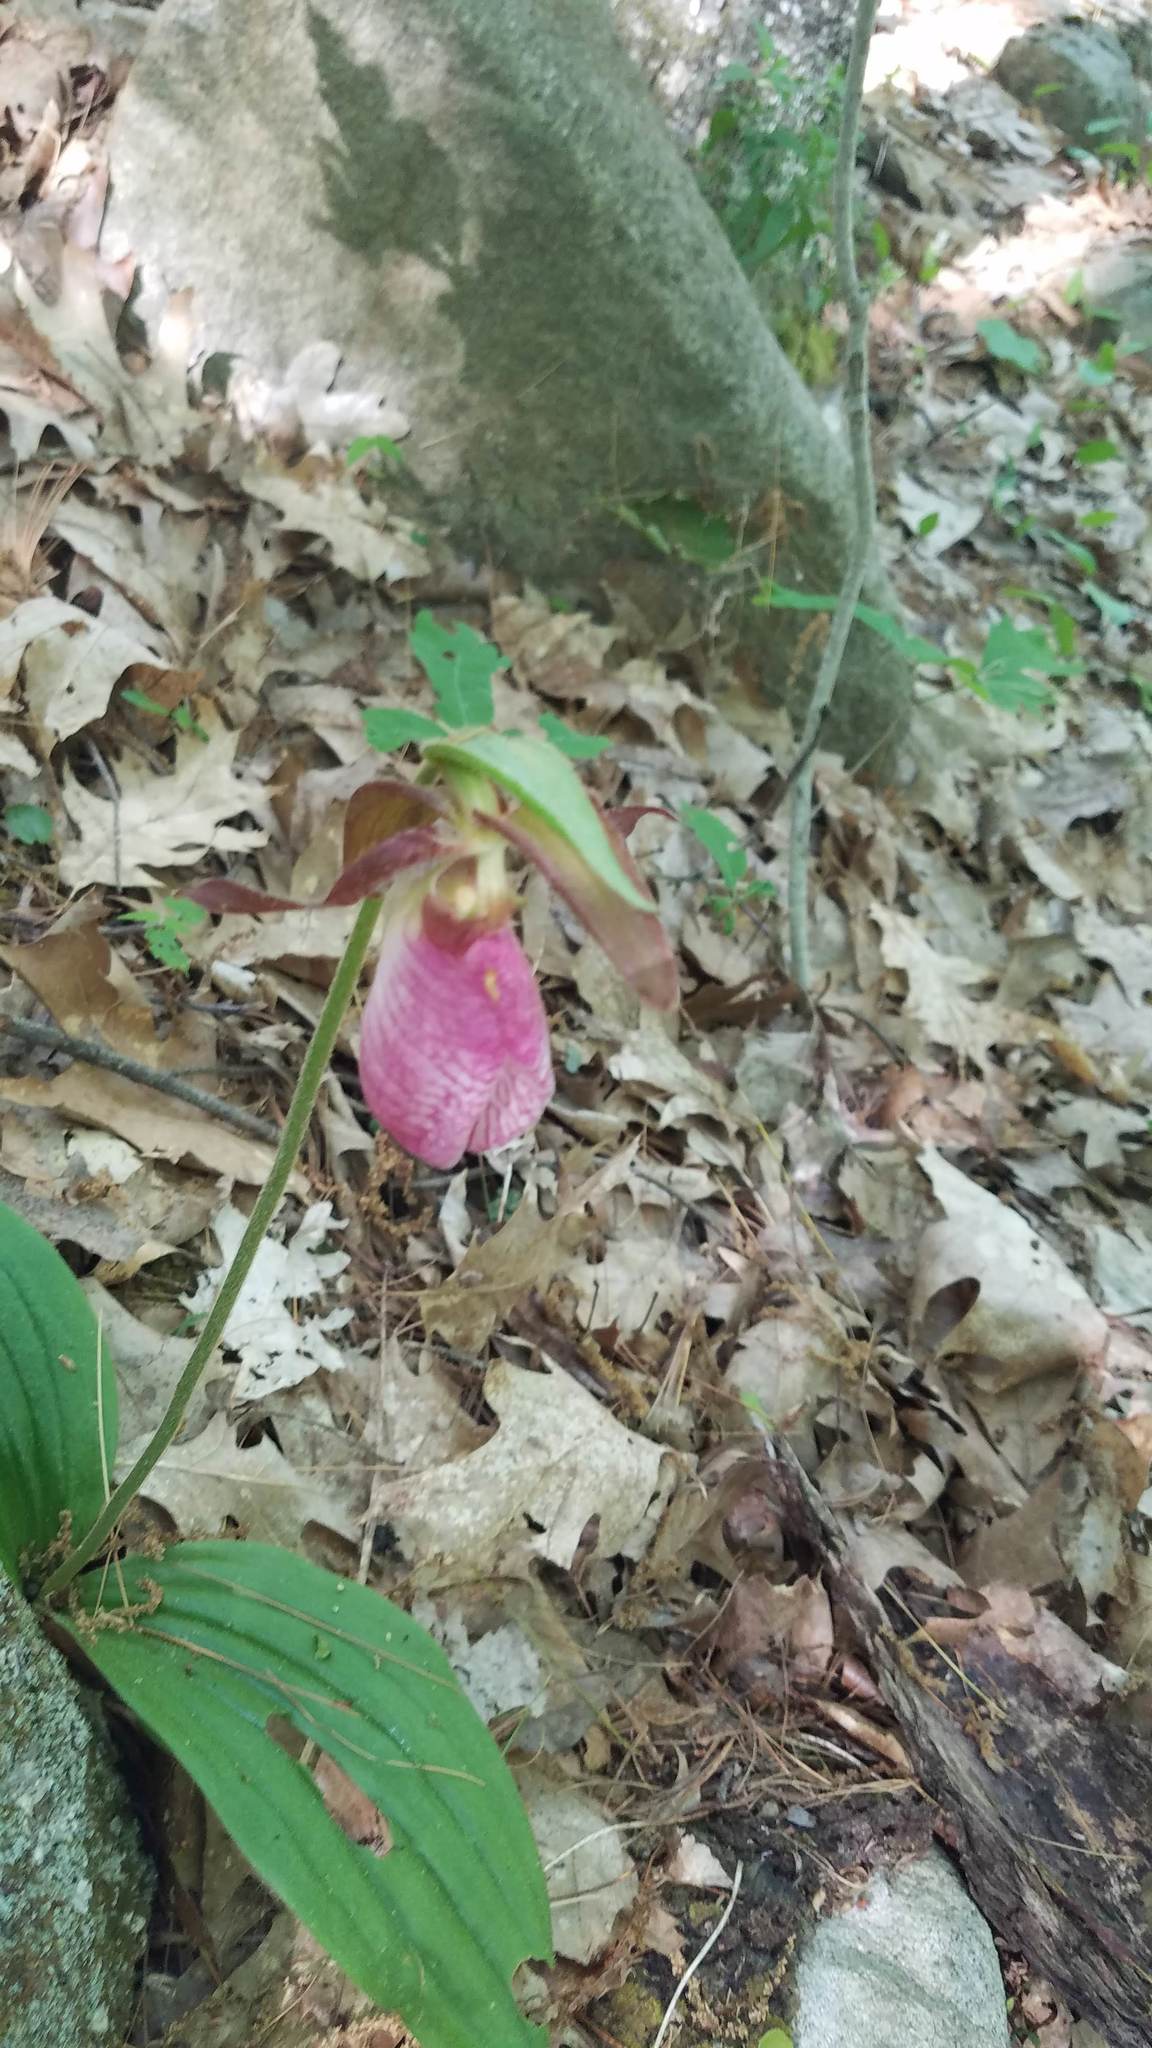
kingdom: Plantae
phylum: Tracheophyta
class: Liliopsida
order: Asparagales
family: Orchidaceae
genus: Cypripedium
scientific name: Cypripedium acaule
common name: Pink lady's-slipper
